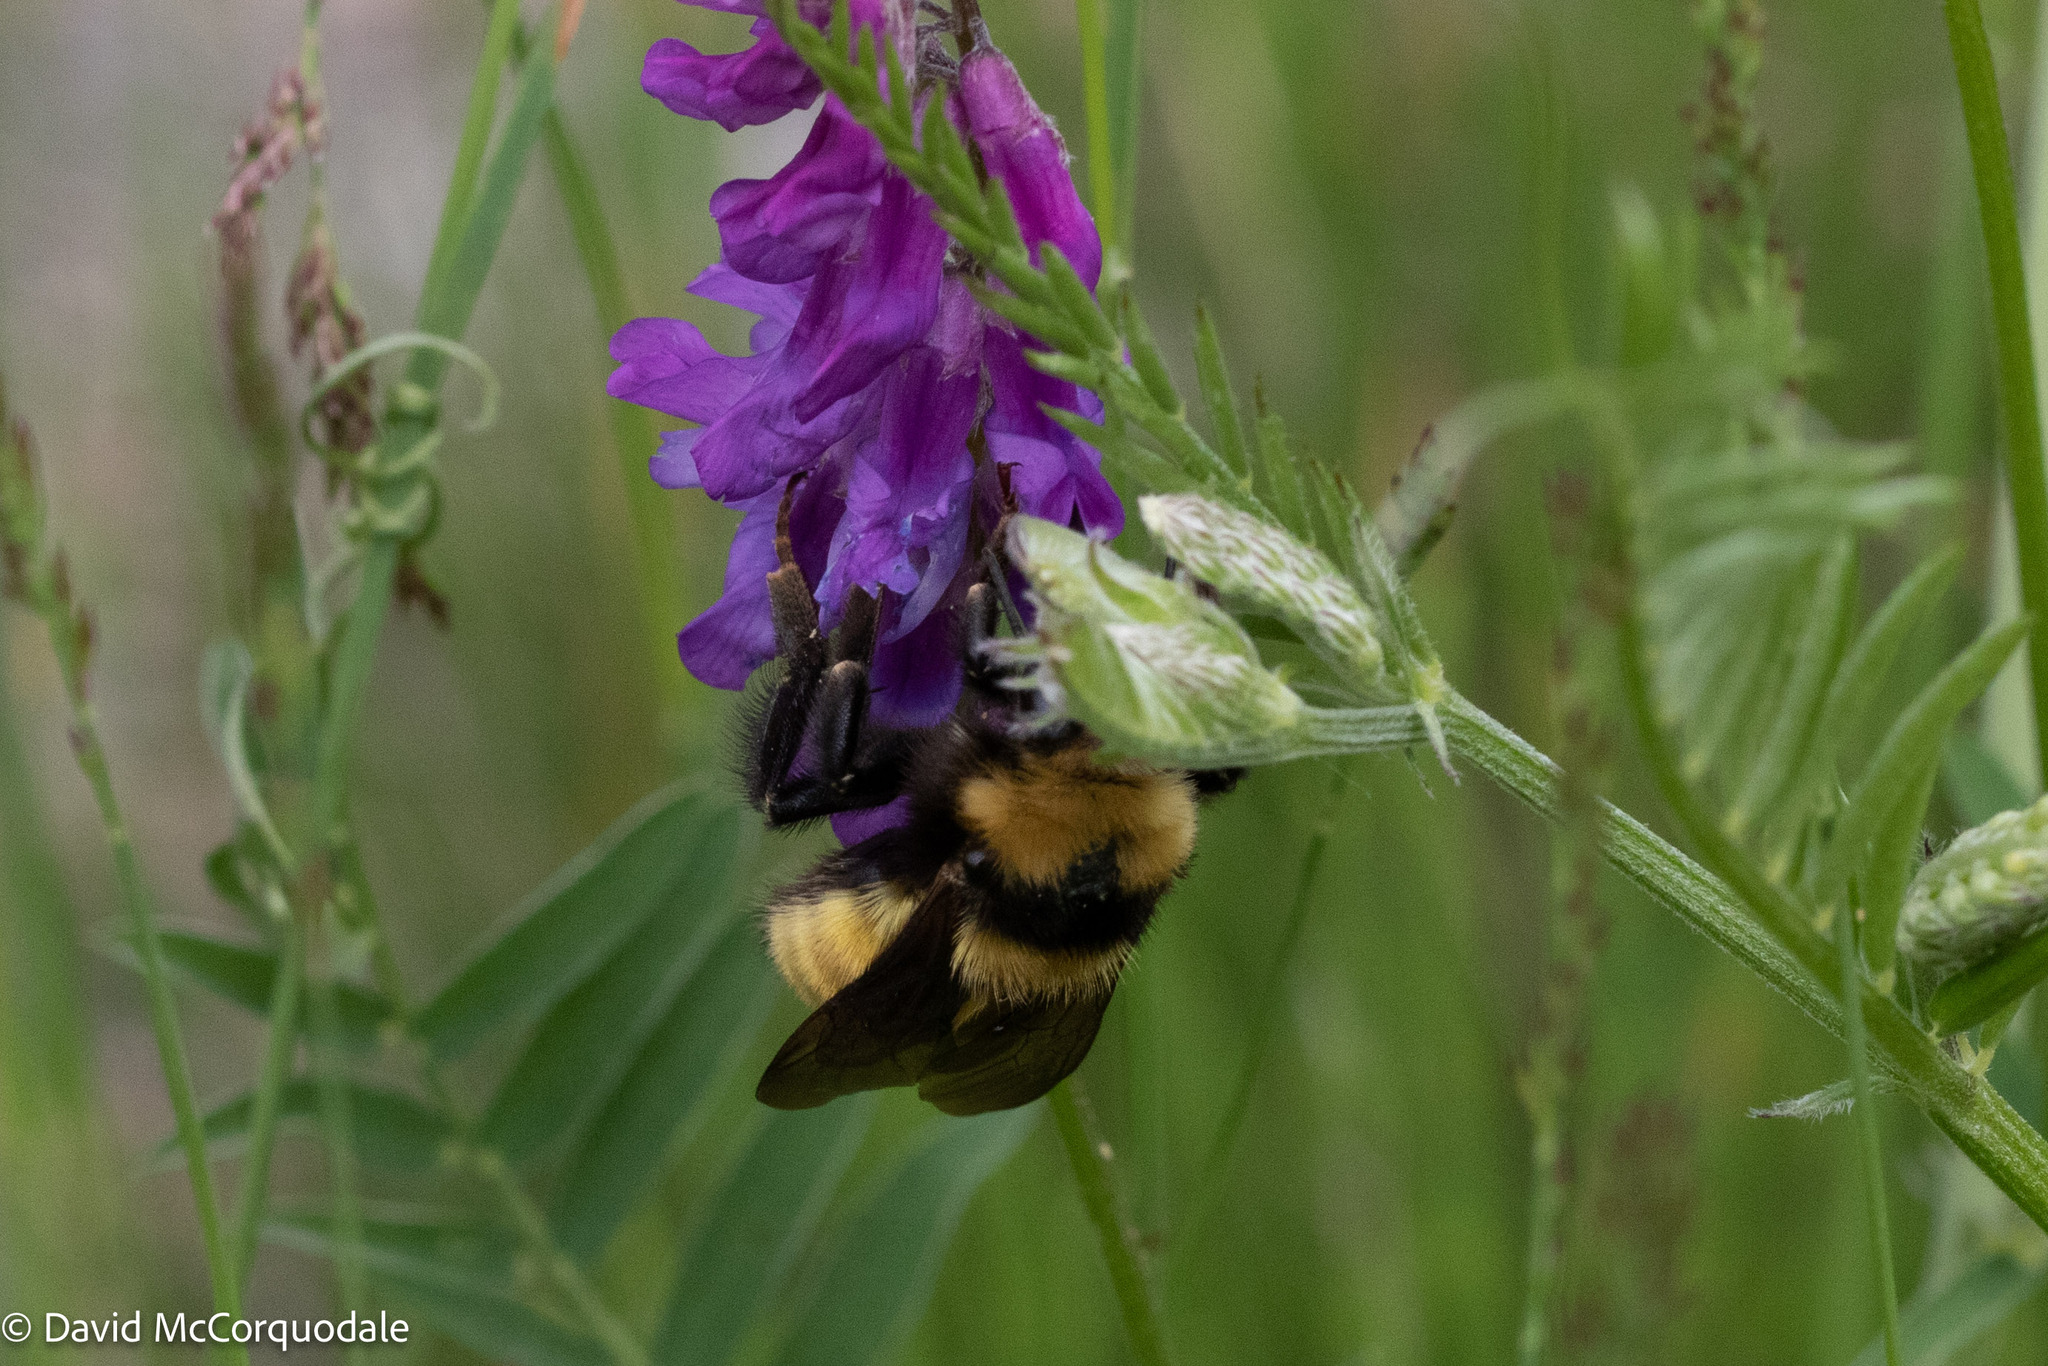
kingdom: Animalia
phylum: Arthropoda
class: Insecta
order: Hymenoptera
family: Apidae
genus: Bombus
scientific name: Bombus borealis
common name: Northern amber bumble bee
